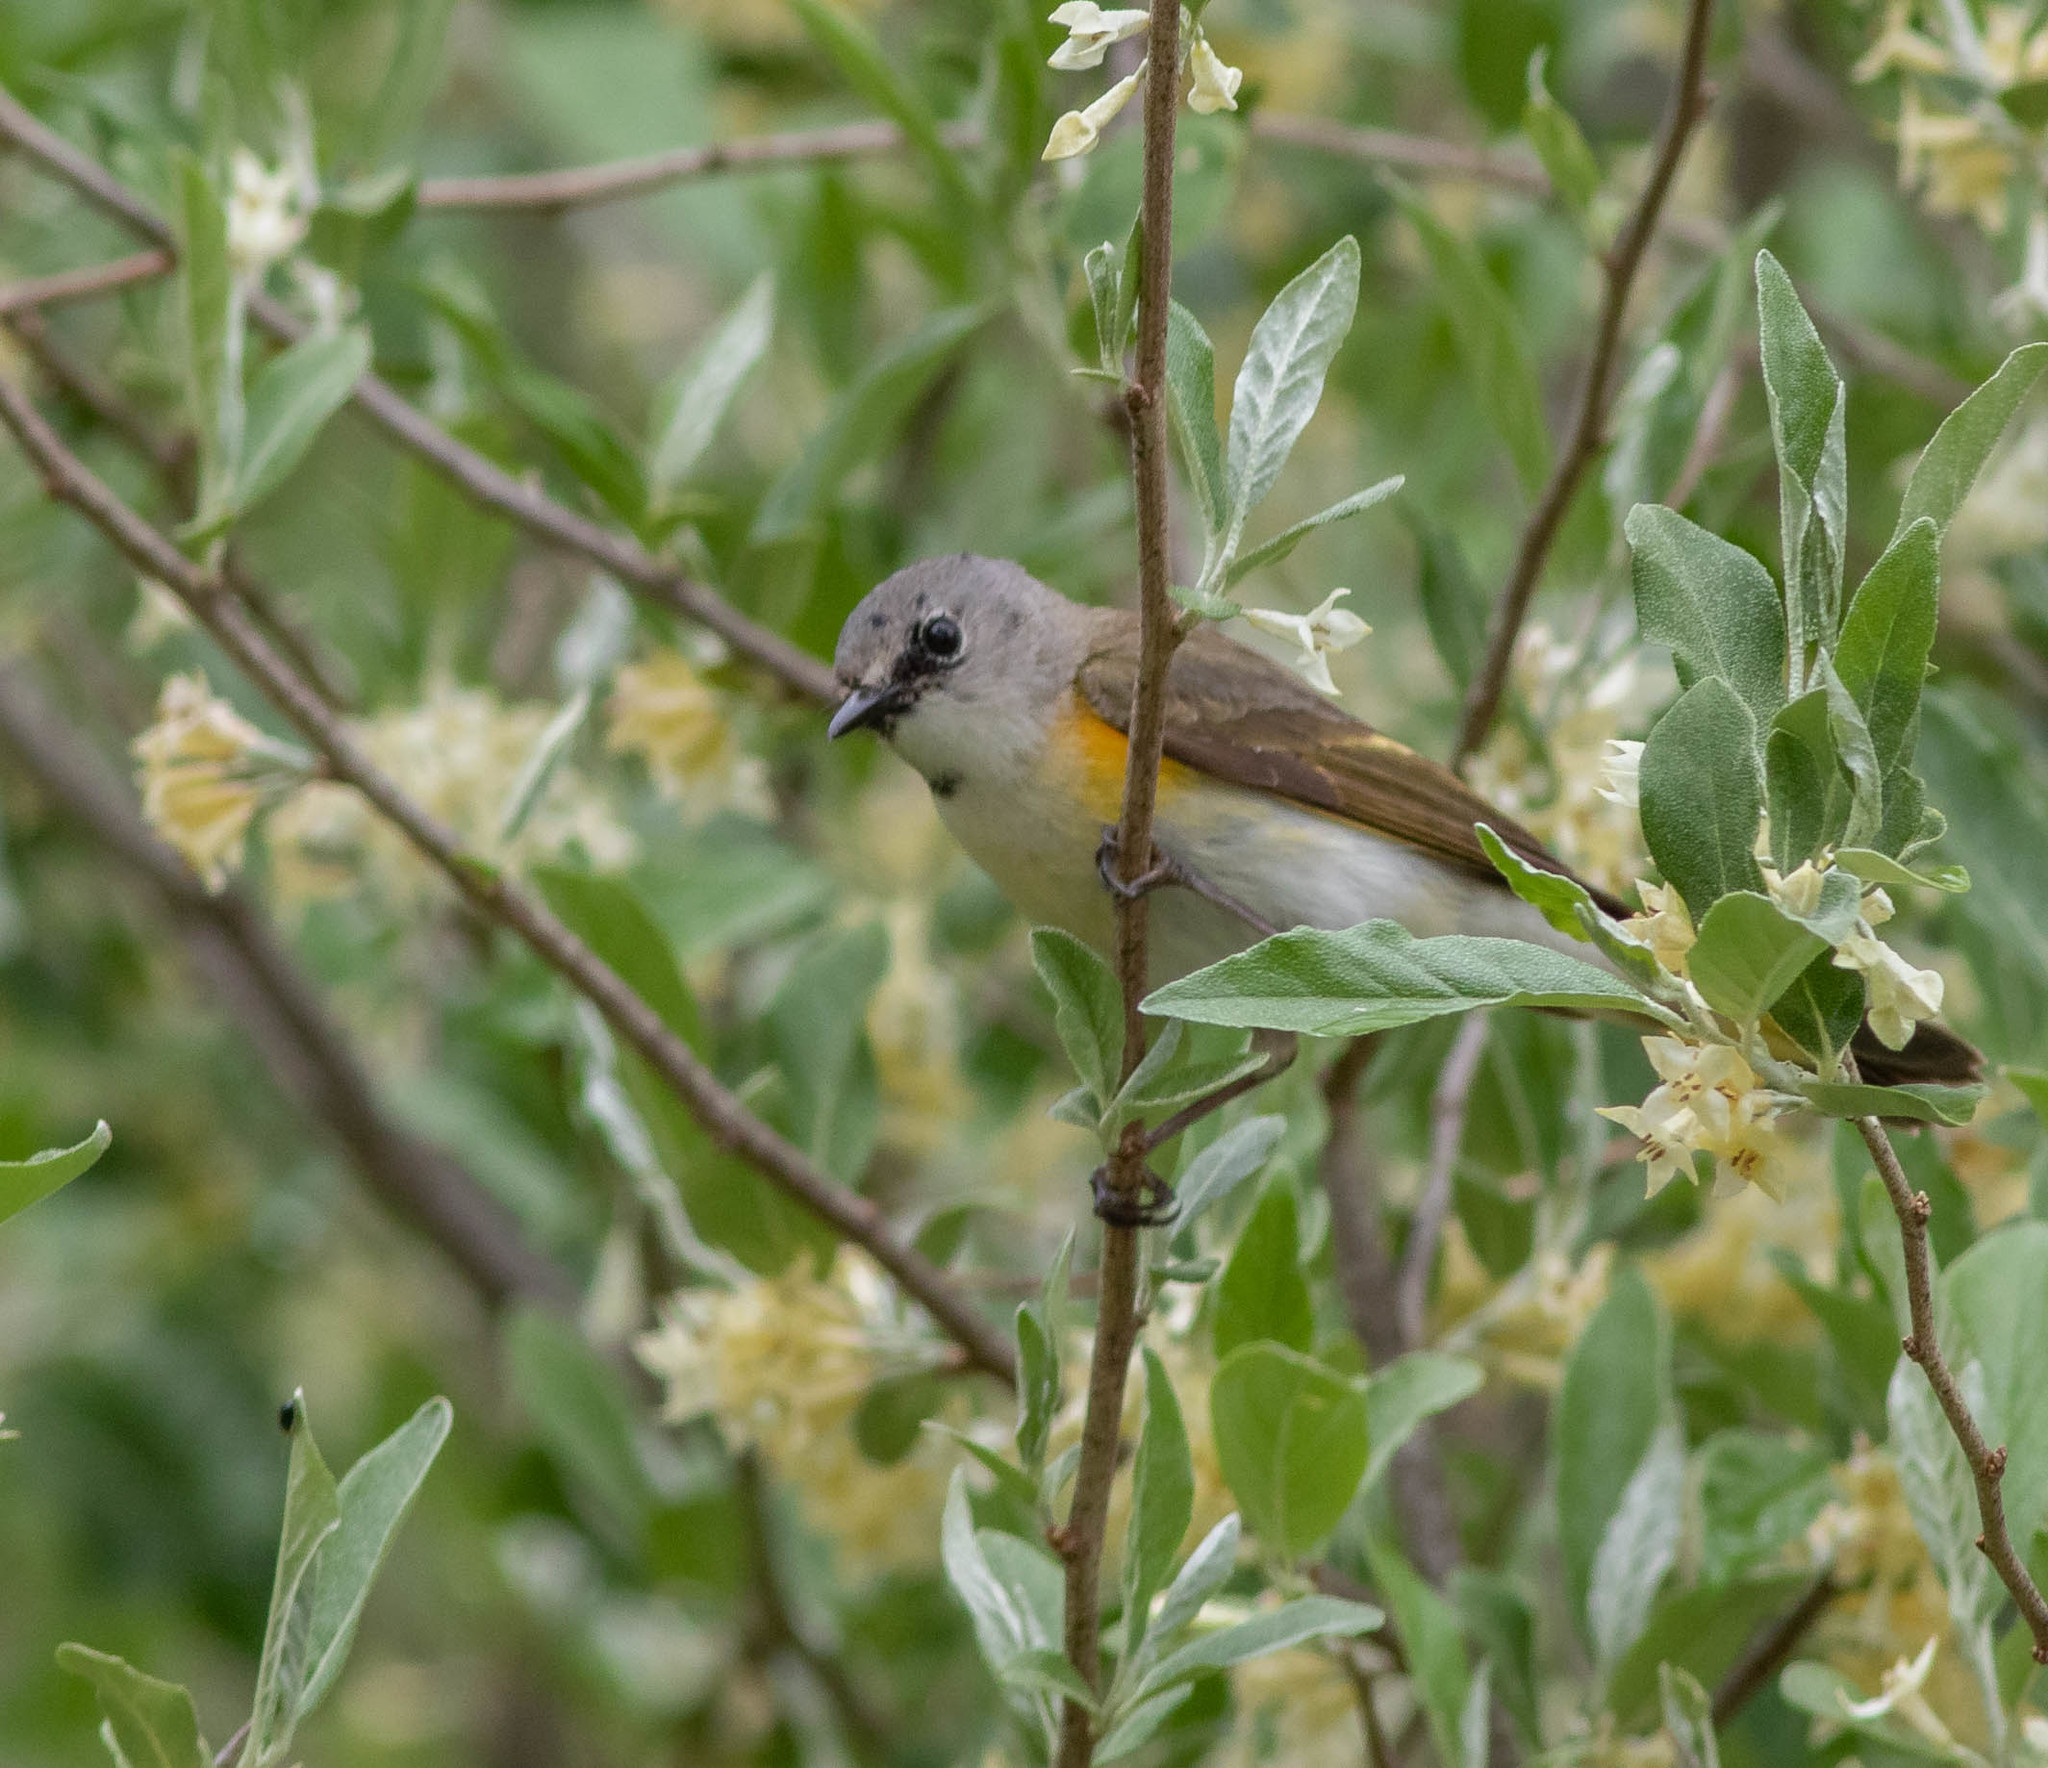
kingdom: Animalia
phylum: Chordata
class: Aves
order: Passeriformes
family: Parulidae
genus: Setophaga
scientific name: Setophaga ruticilla
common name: American redstart
